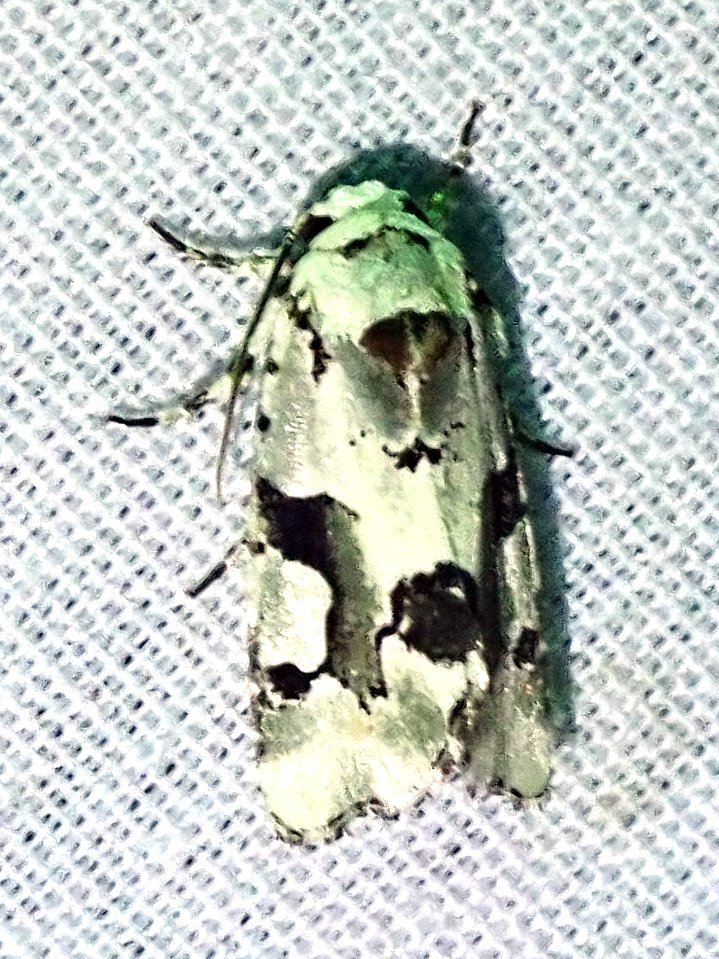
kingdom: Animalia
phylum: Arthropoda
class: Insecta
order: Lepidoptera
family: Noctuidae
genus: Emarginea
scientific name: Emarginea percara
